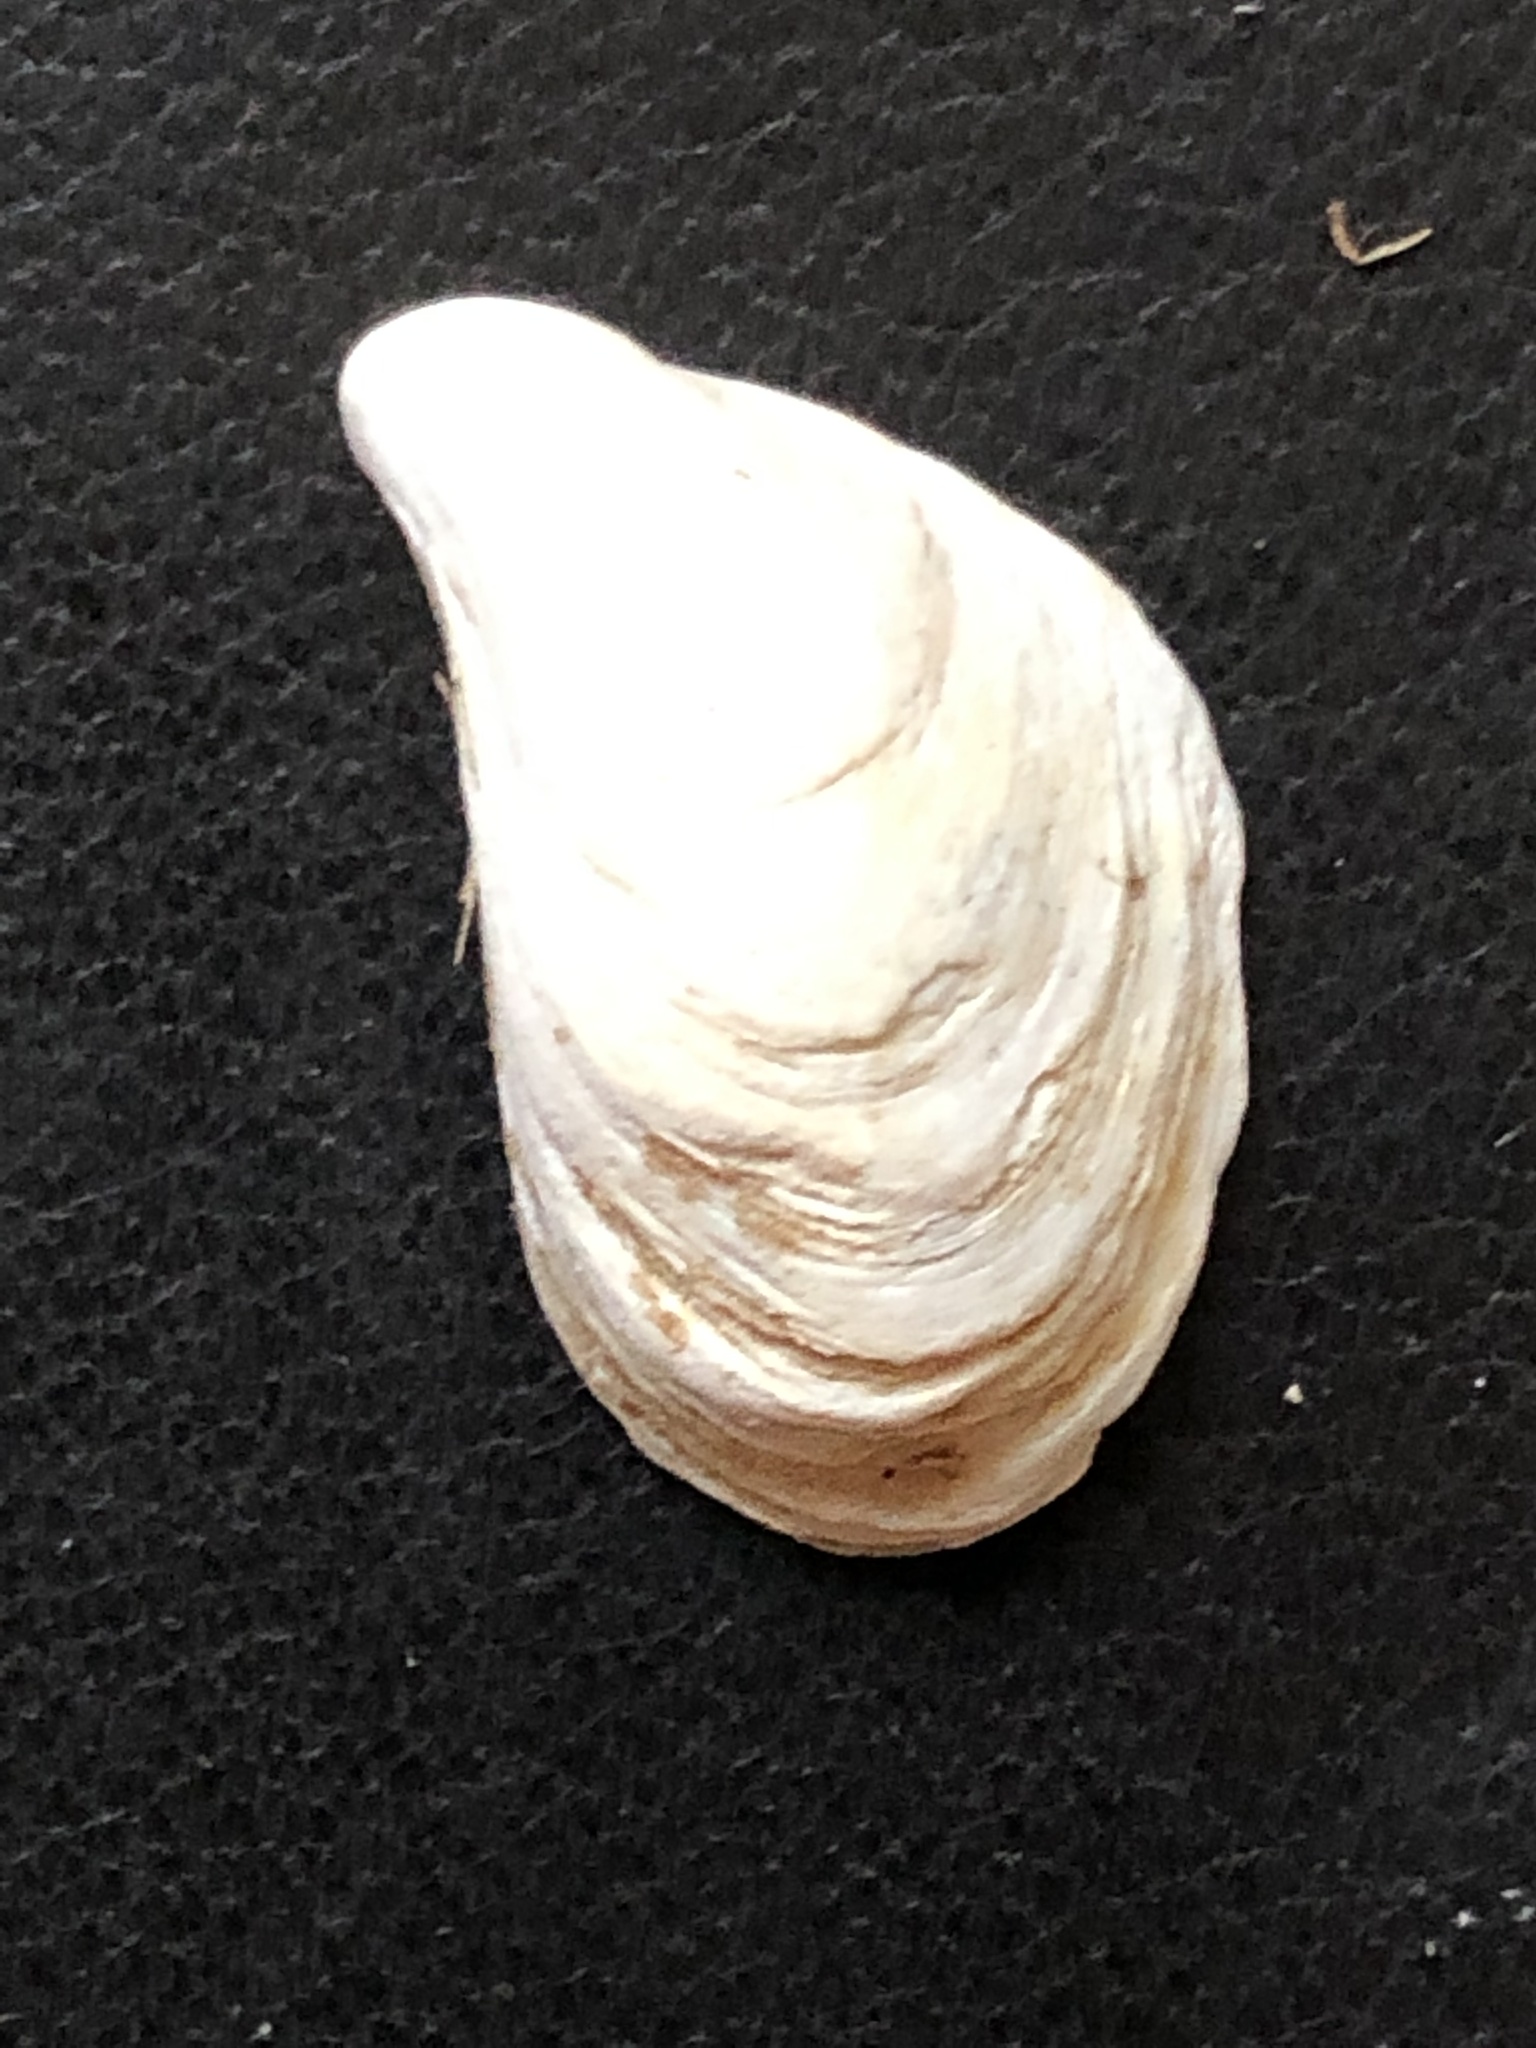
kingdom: Animalia
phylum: Mollusca
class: Bivalvia
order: Myida
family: Dreissenidae
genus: Dreissena
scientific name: Dreissena bugensis
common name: Quagga mussel
